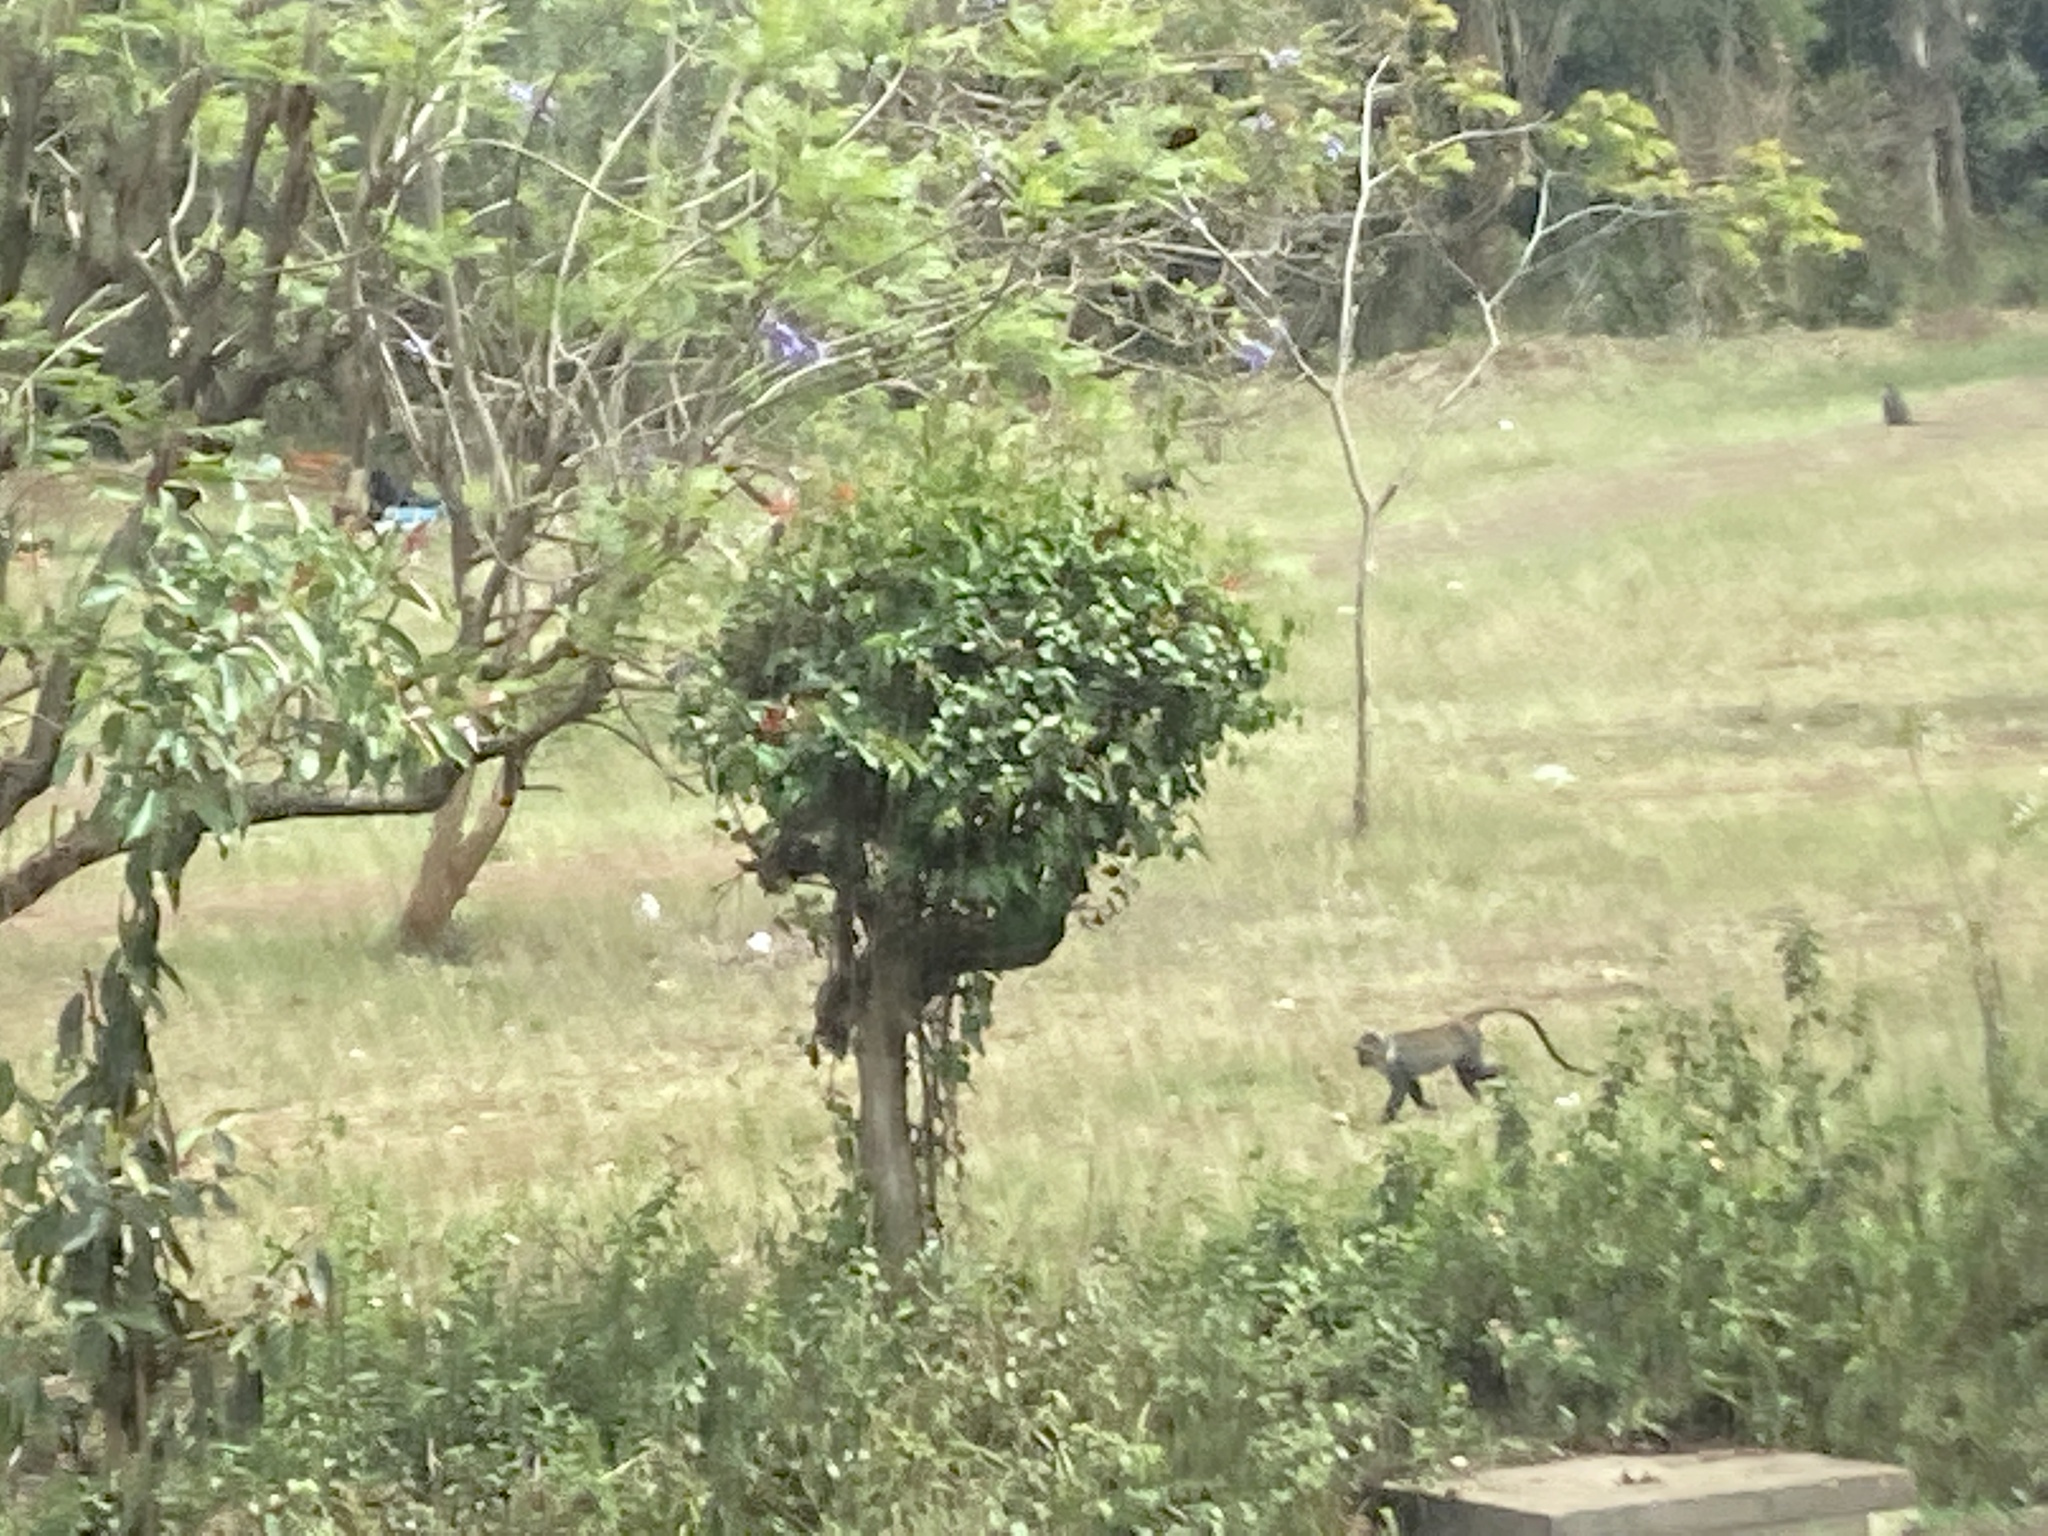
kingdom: Animalia
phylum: Chordata
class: Mammalia
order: Primates
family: Cercopithecidae
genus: Cercopithecus
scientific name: Cercopithecus mitis
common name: Blue monkey
